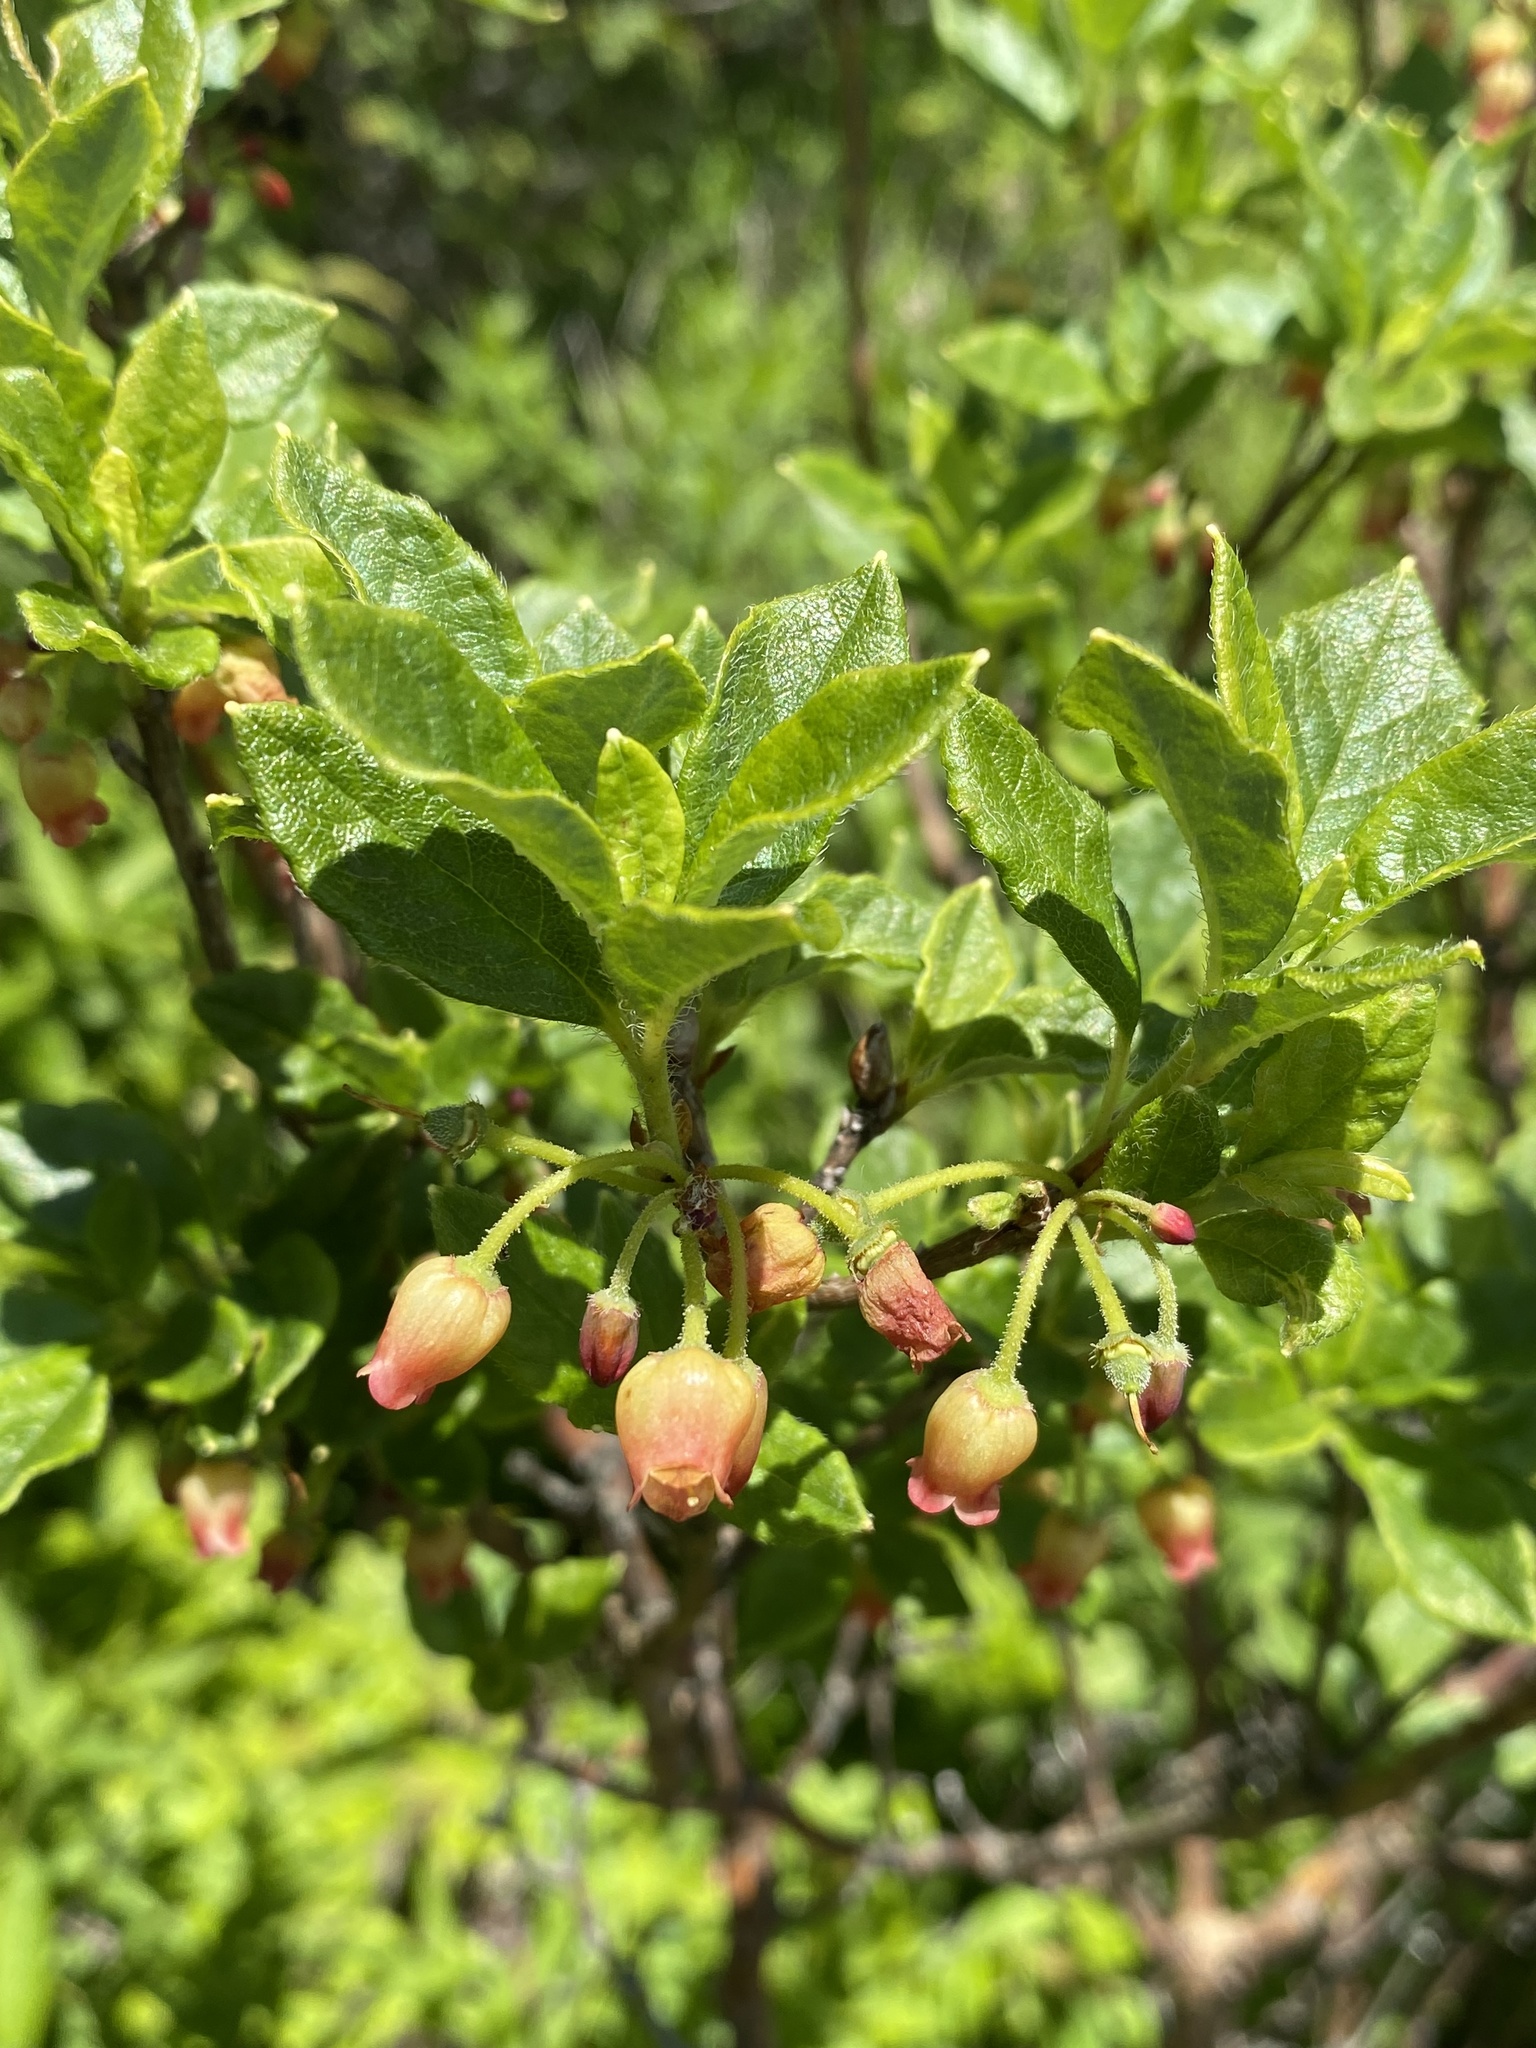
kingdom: Plantae
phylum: Tracheophyta
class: Magnoliopsida
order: Ericales
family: Ericaceae
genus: Rhododendron
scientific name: Rhododendron pilosum
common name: Hairy minniebush
